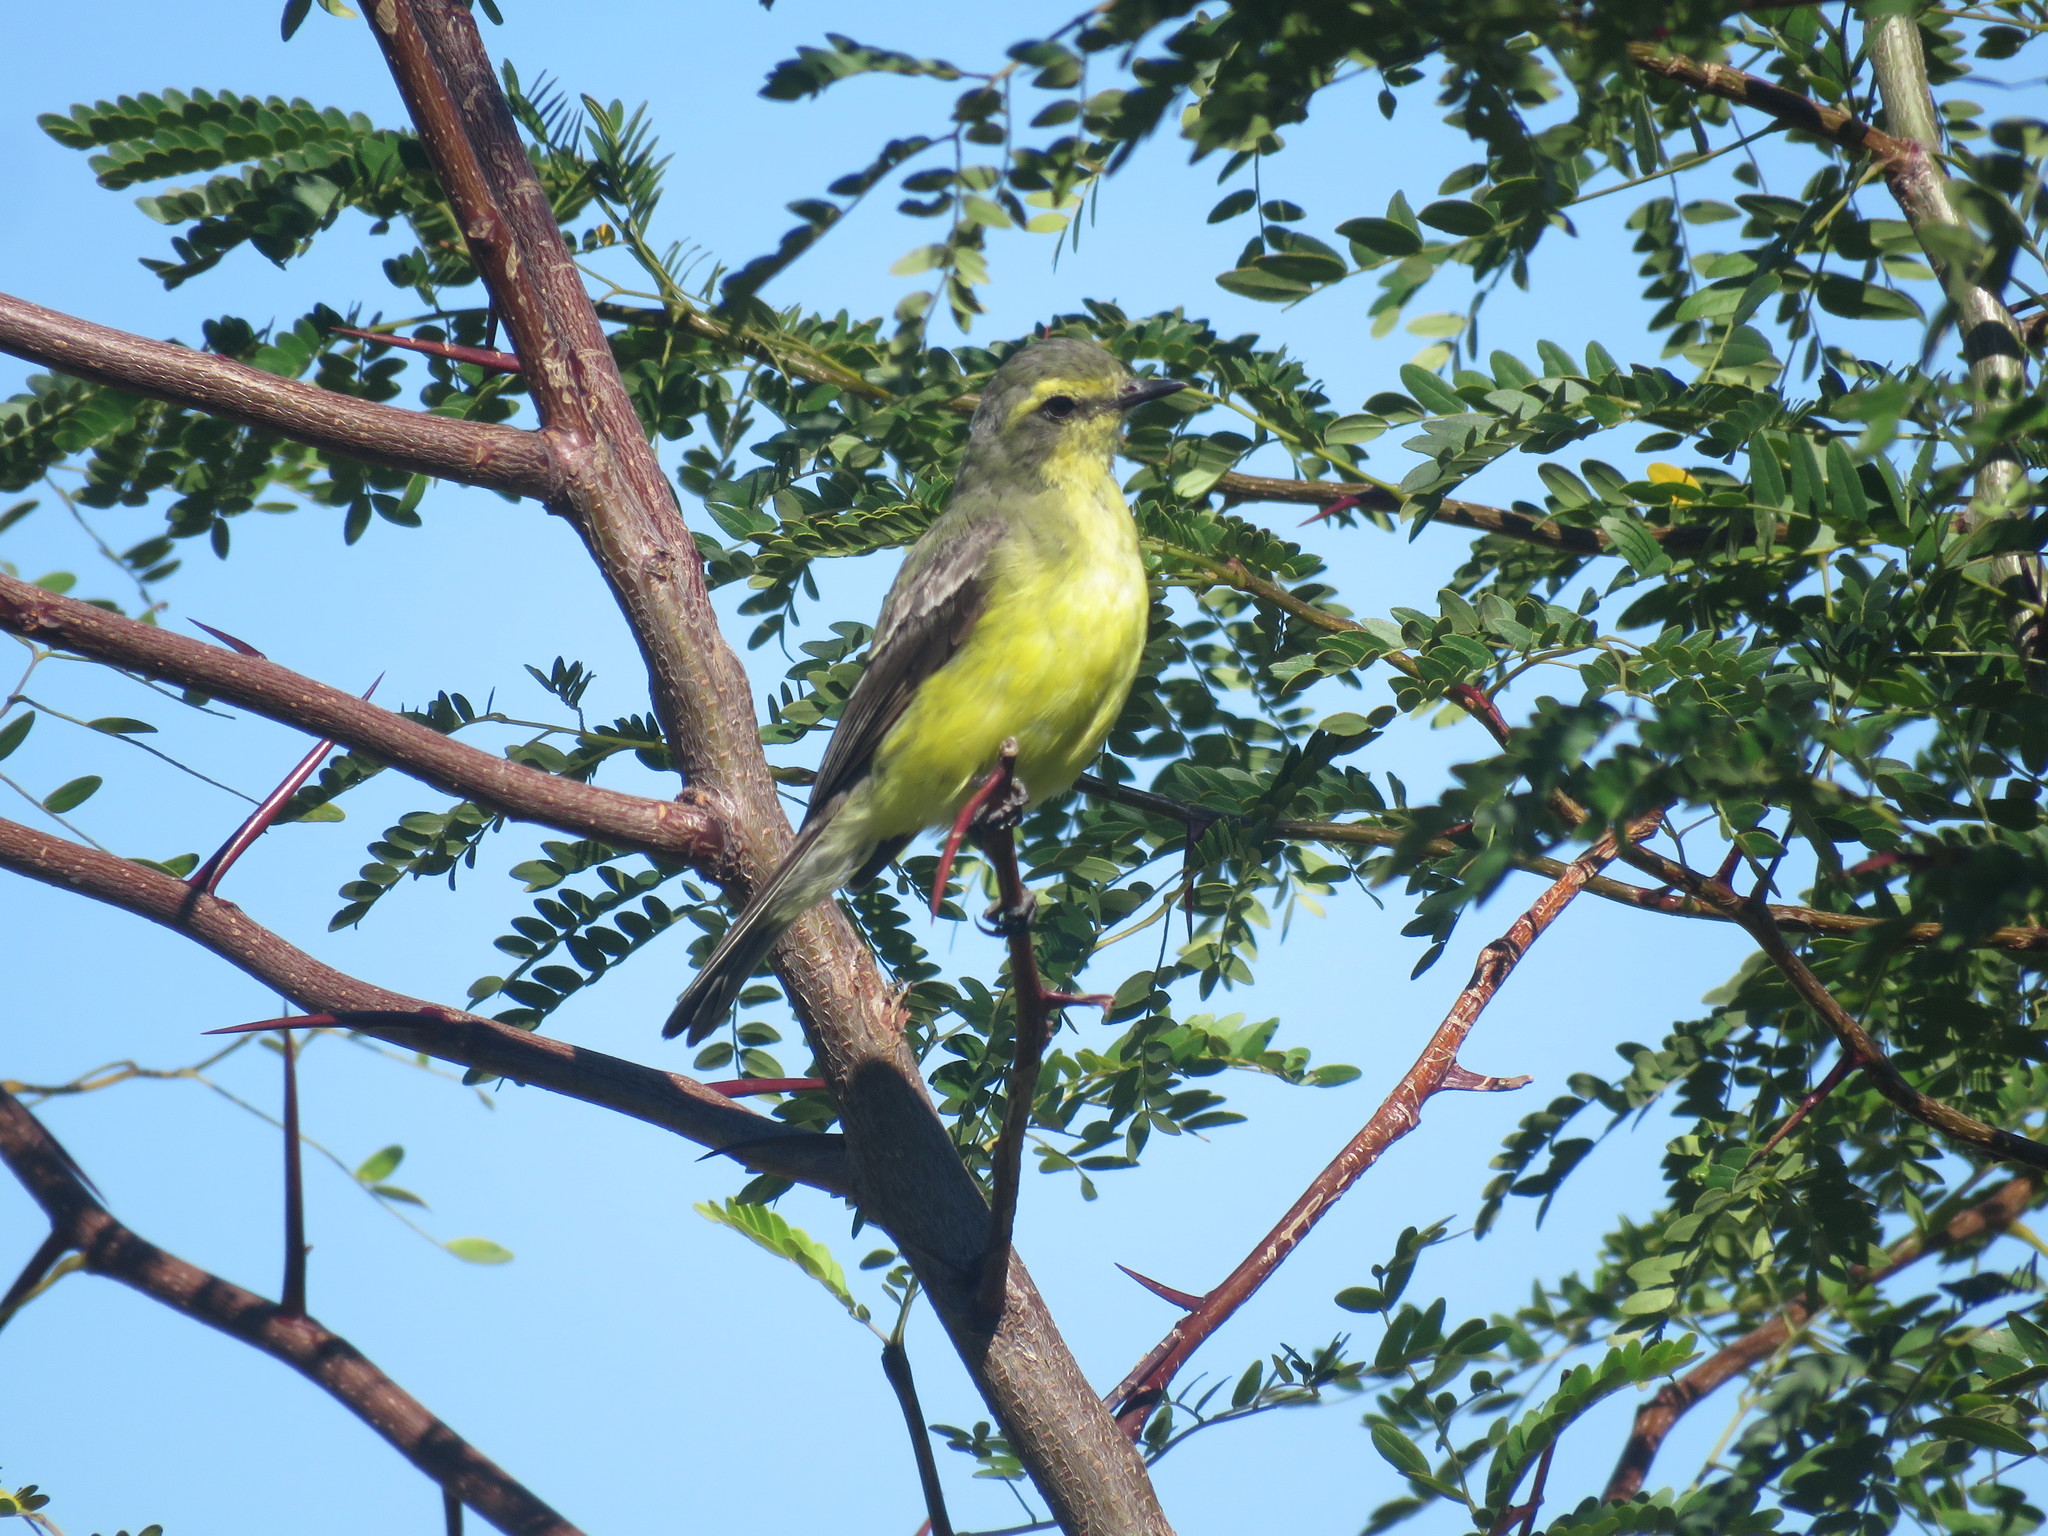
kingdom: Animalia
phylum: Chordata
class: Aves
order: Passeriformes
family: Tyrannidae
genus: Satrapa
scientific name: Satrapa icterophrys
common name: Yellow-browed tyrant
